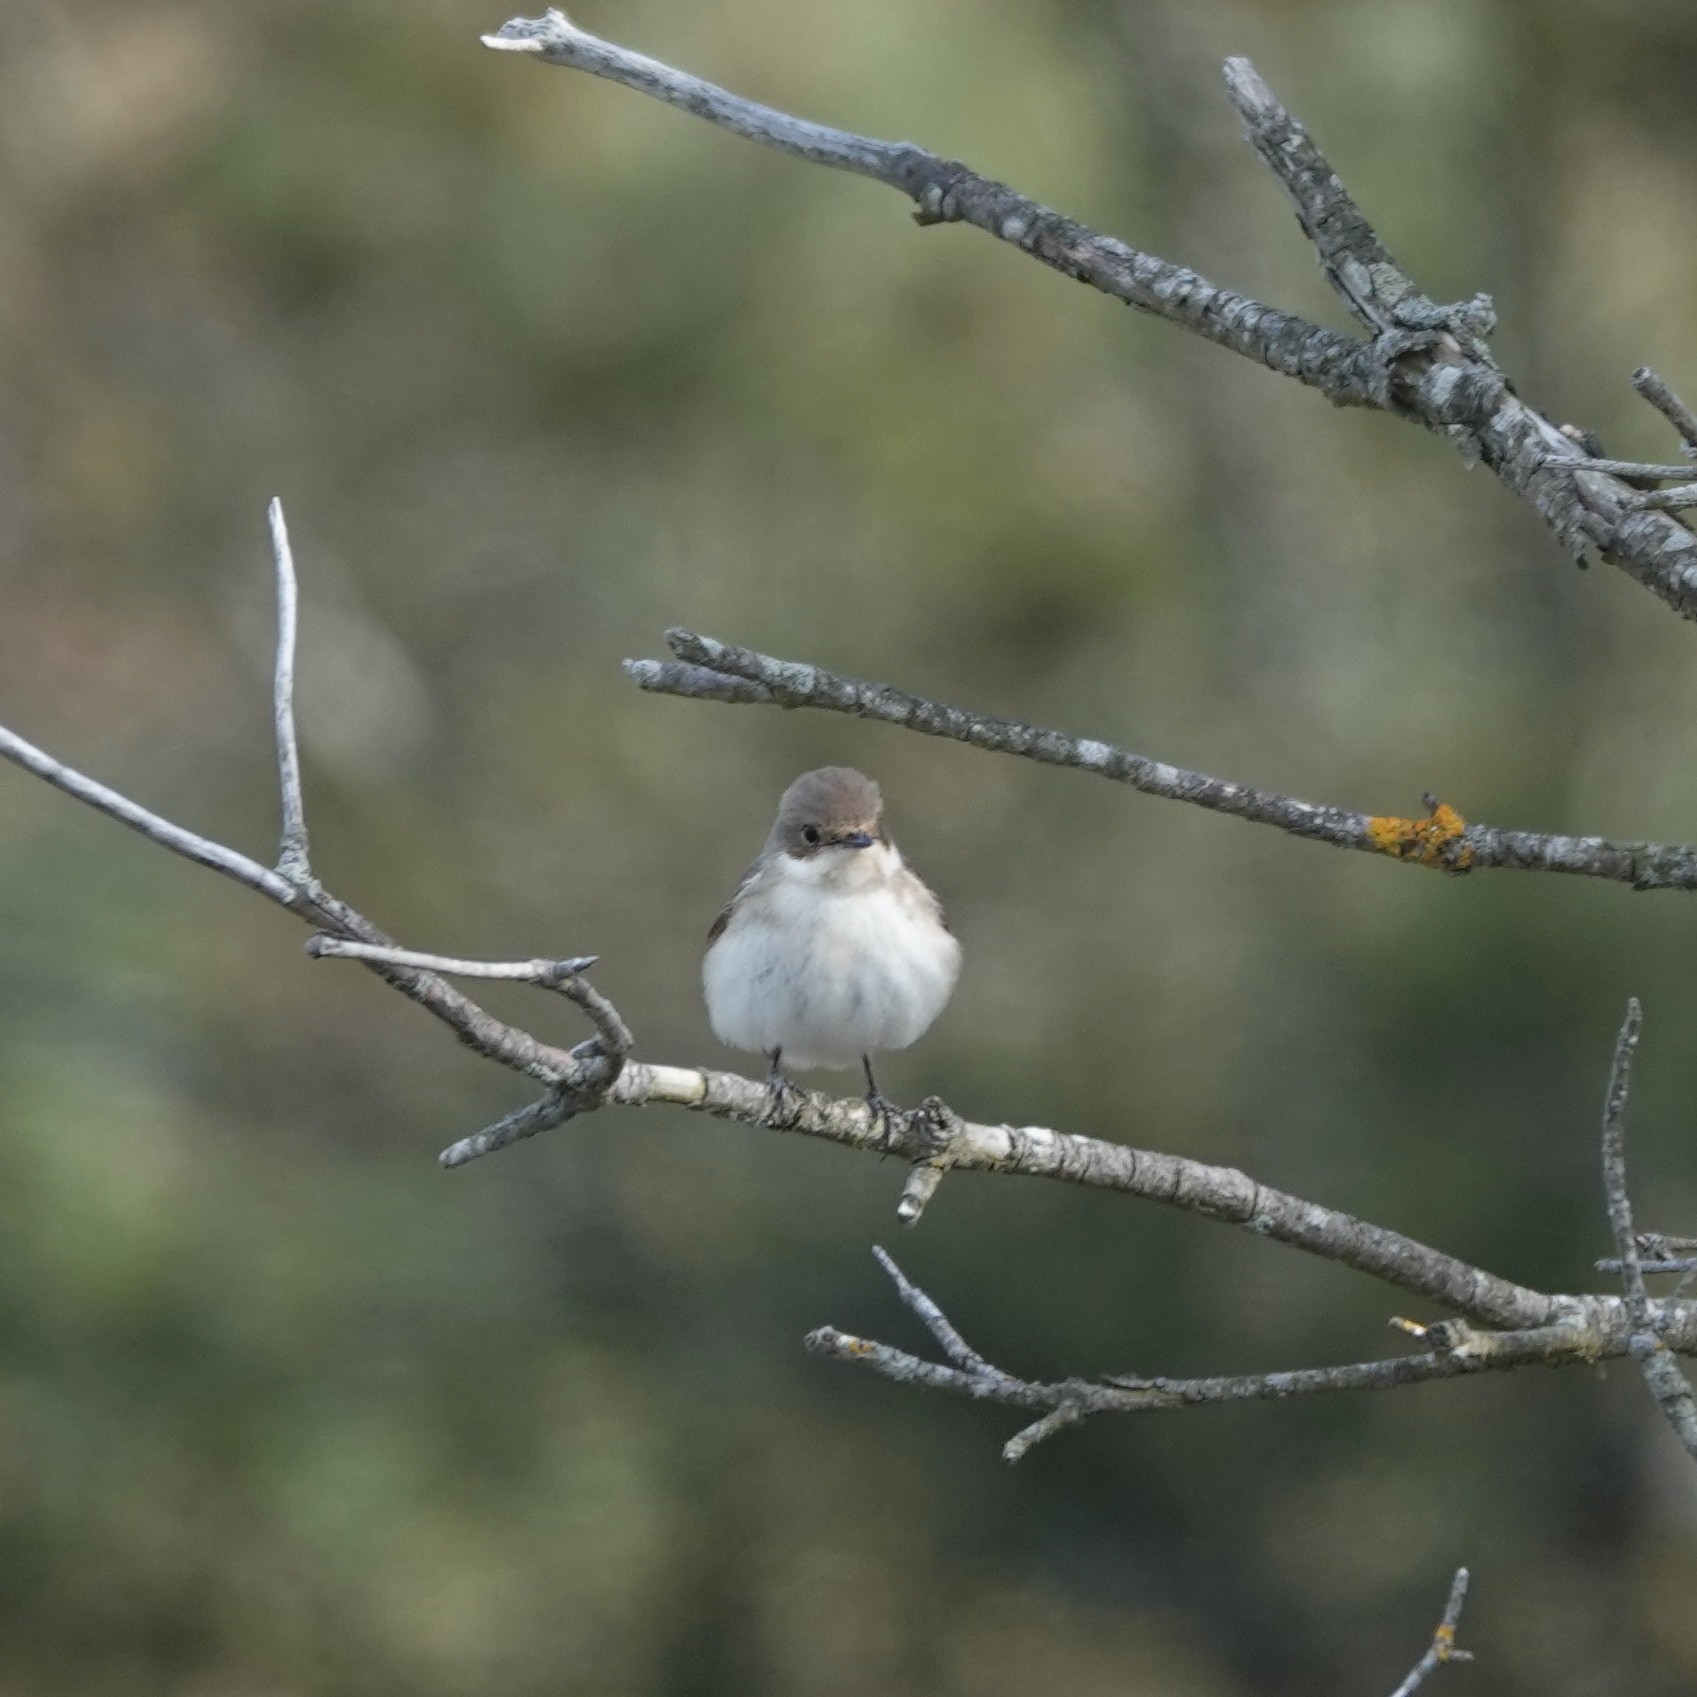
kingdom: Animalia
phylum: Chordata
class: Aves
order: Passeriformes
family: Muscicapidae
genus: Ficedula
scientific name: Ficedula hypoleuca
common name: European pied flycatcher
